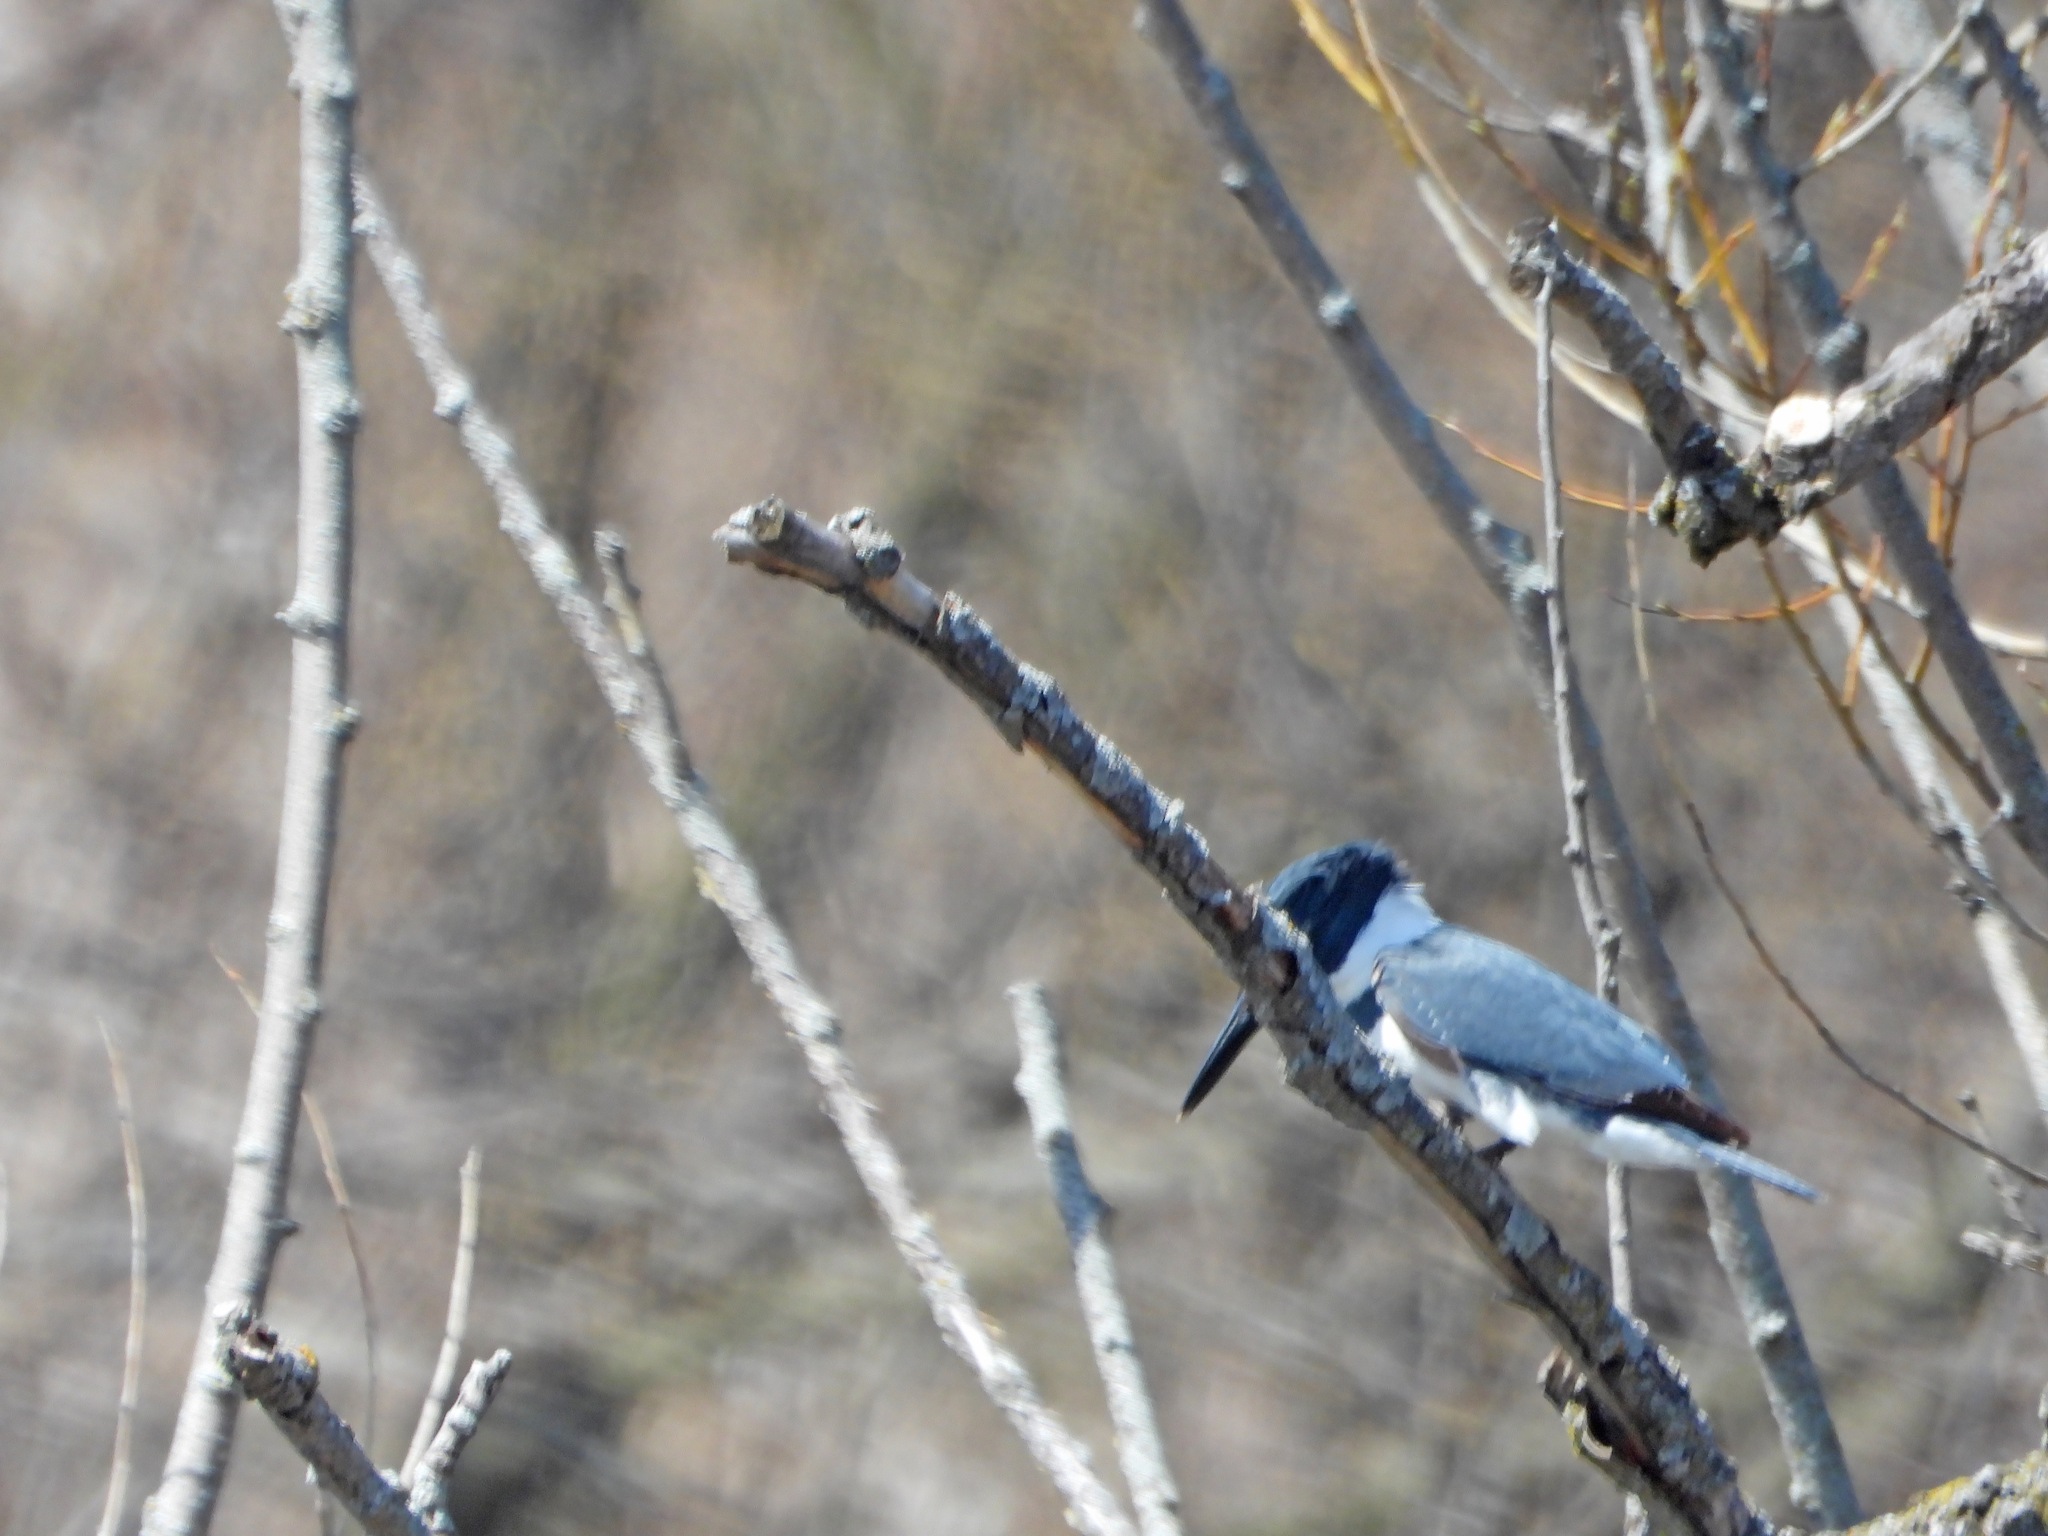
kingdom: Animalia
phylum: Chordata
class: Aves
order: Coraciiformes
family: Alcedinidae
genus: Megaceryle
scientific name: Megaceryle alcyon
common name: Belted kingfisher
